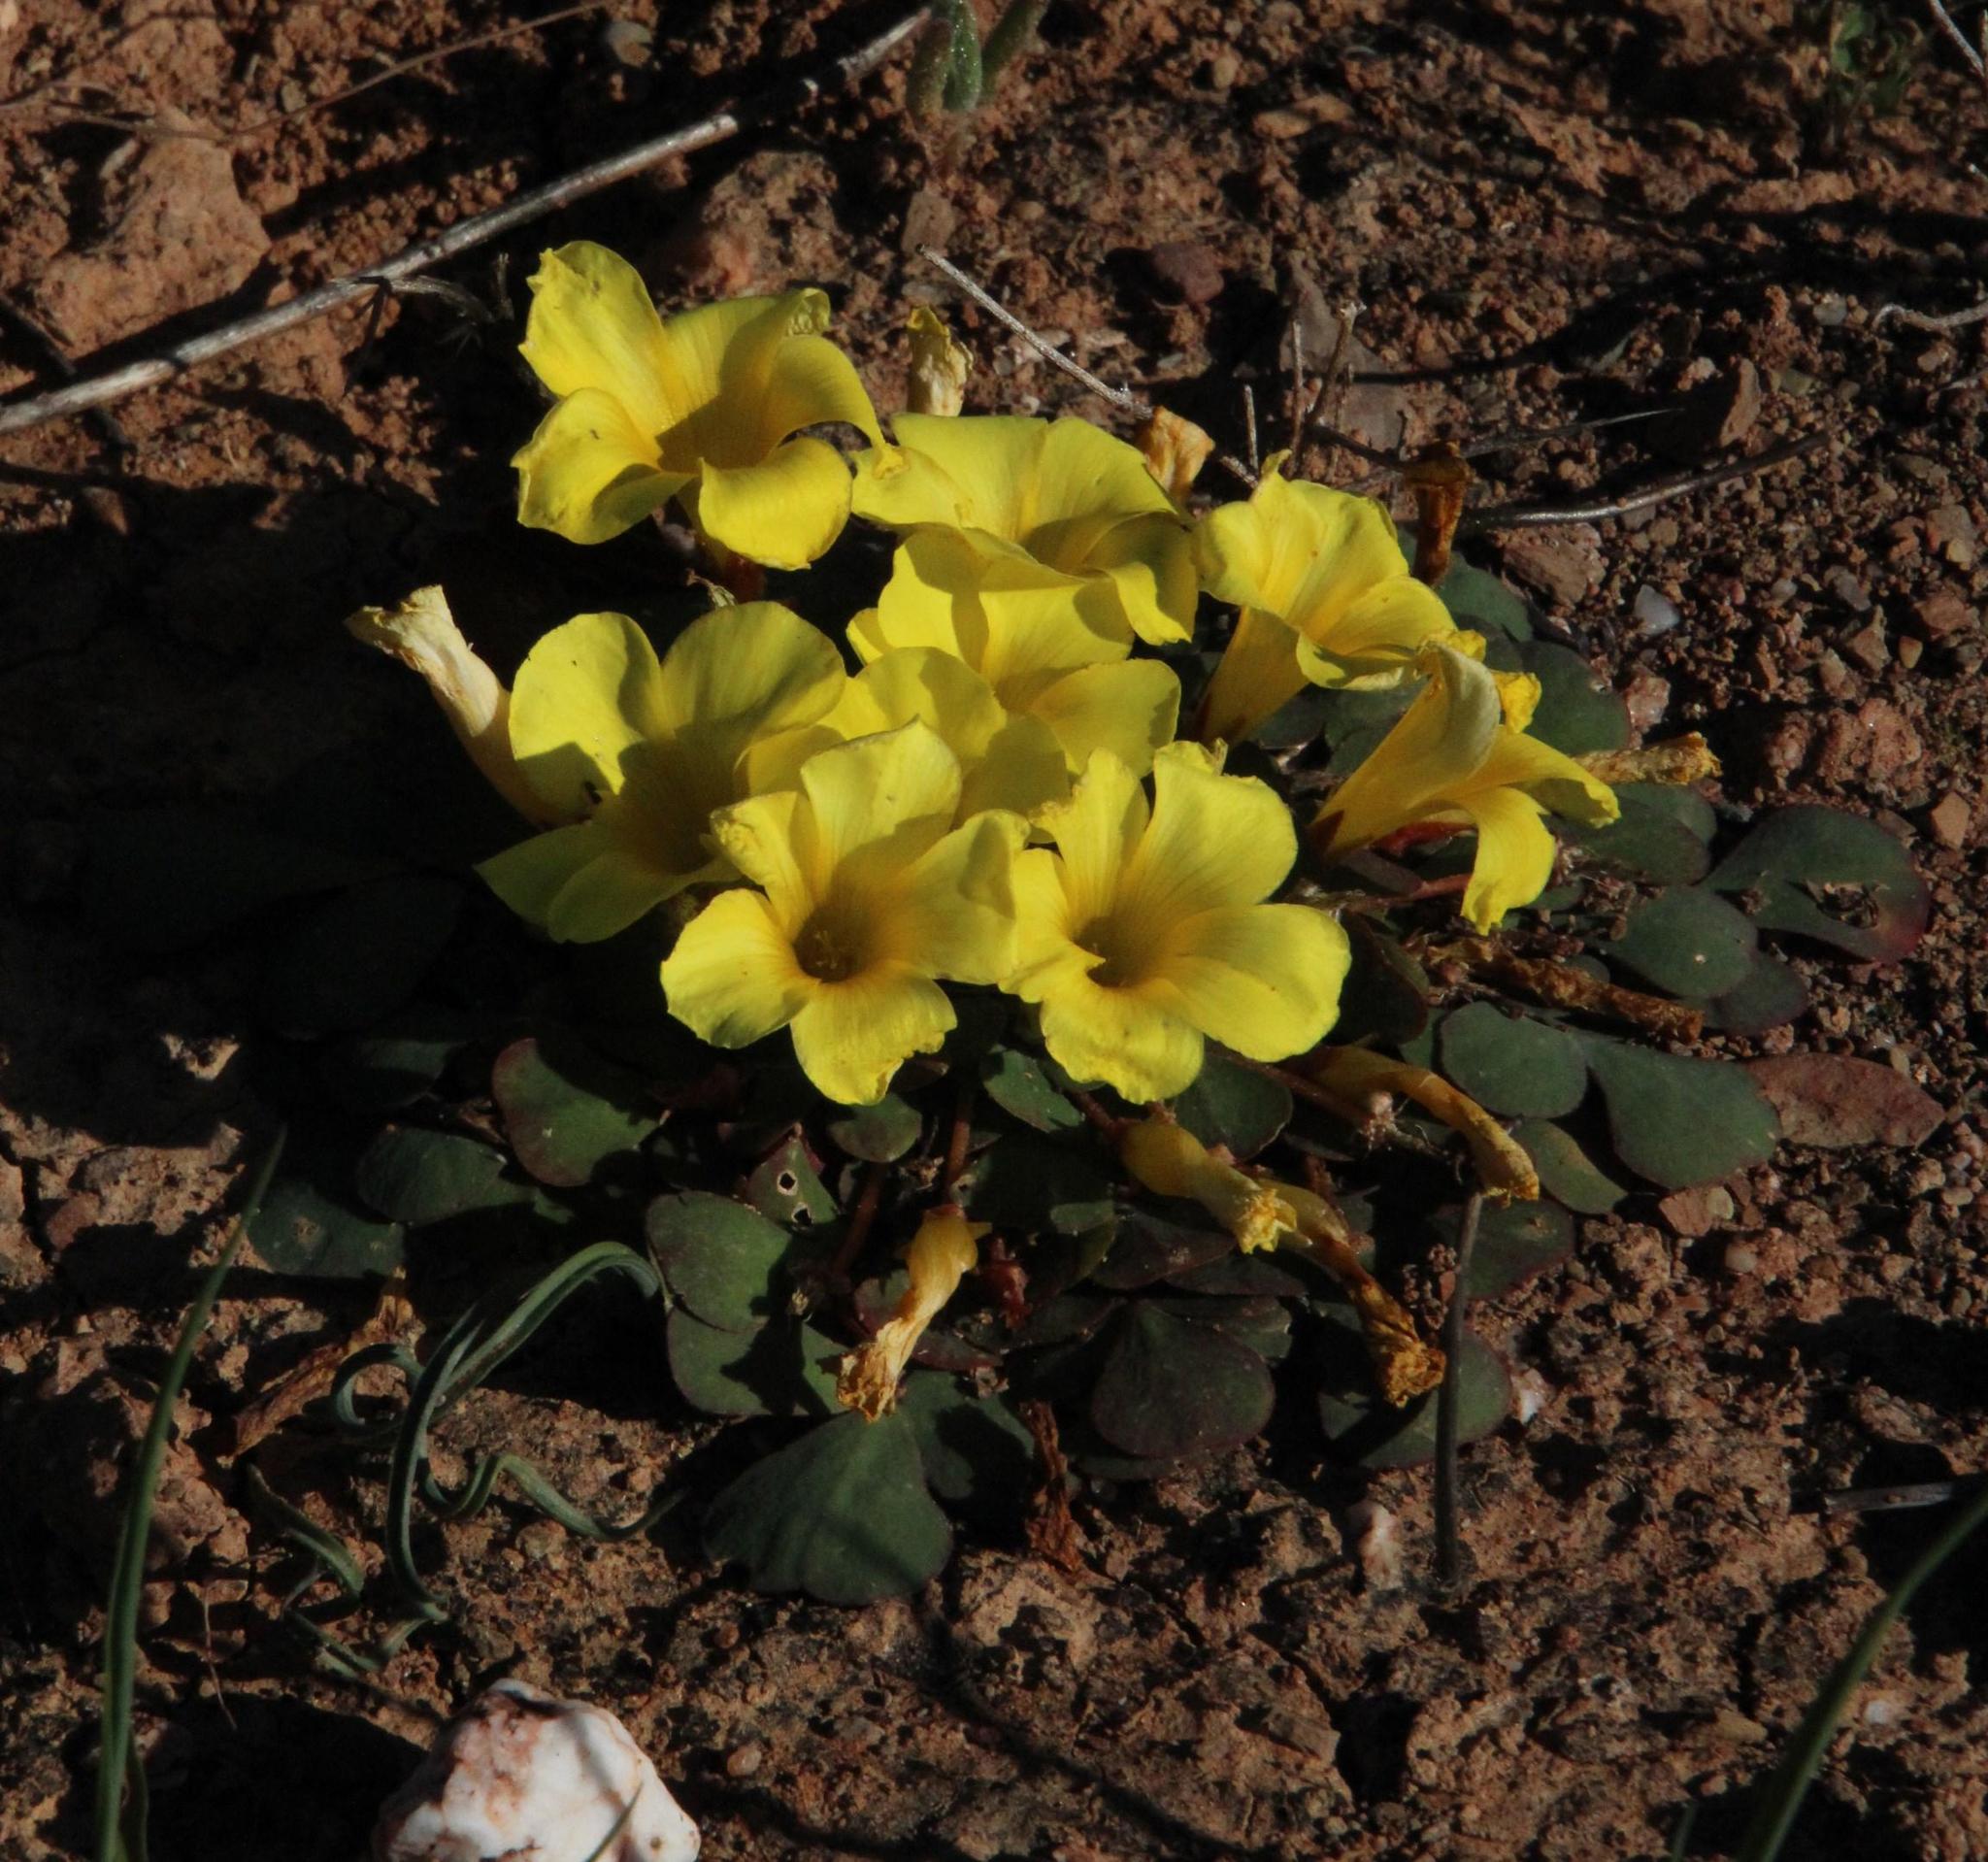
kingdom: Plantae
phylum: Tracheophyta
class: Magnoliopsida
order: Oxalidales
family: Oxalidaceae
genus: Oxalis
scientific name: Oxalis purpurea
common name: Purple woodsorrel
